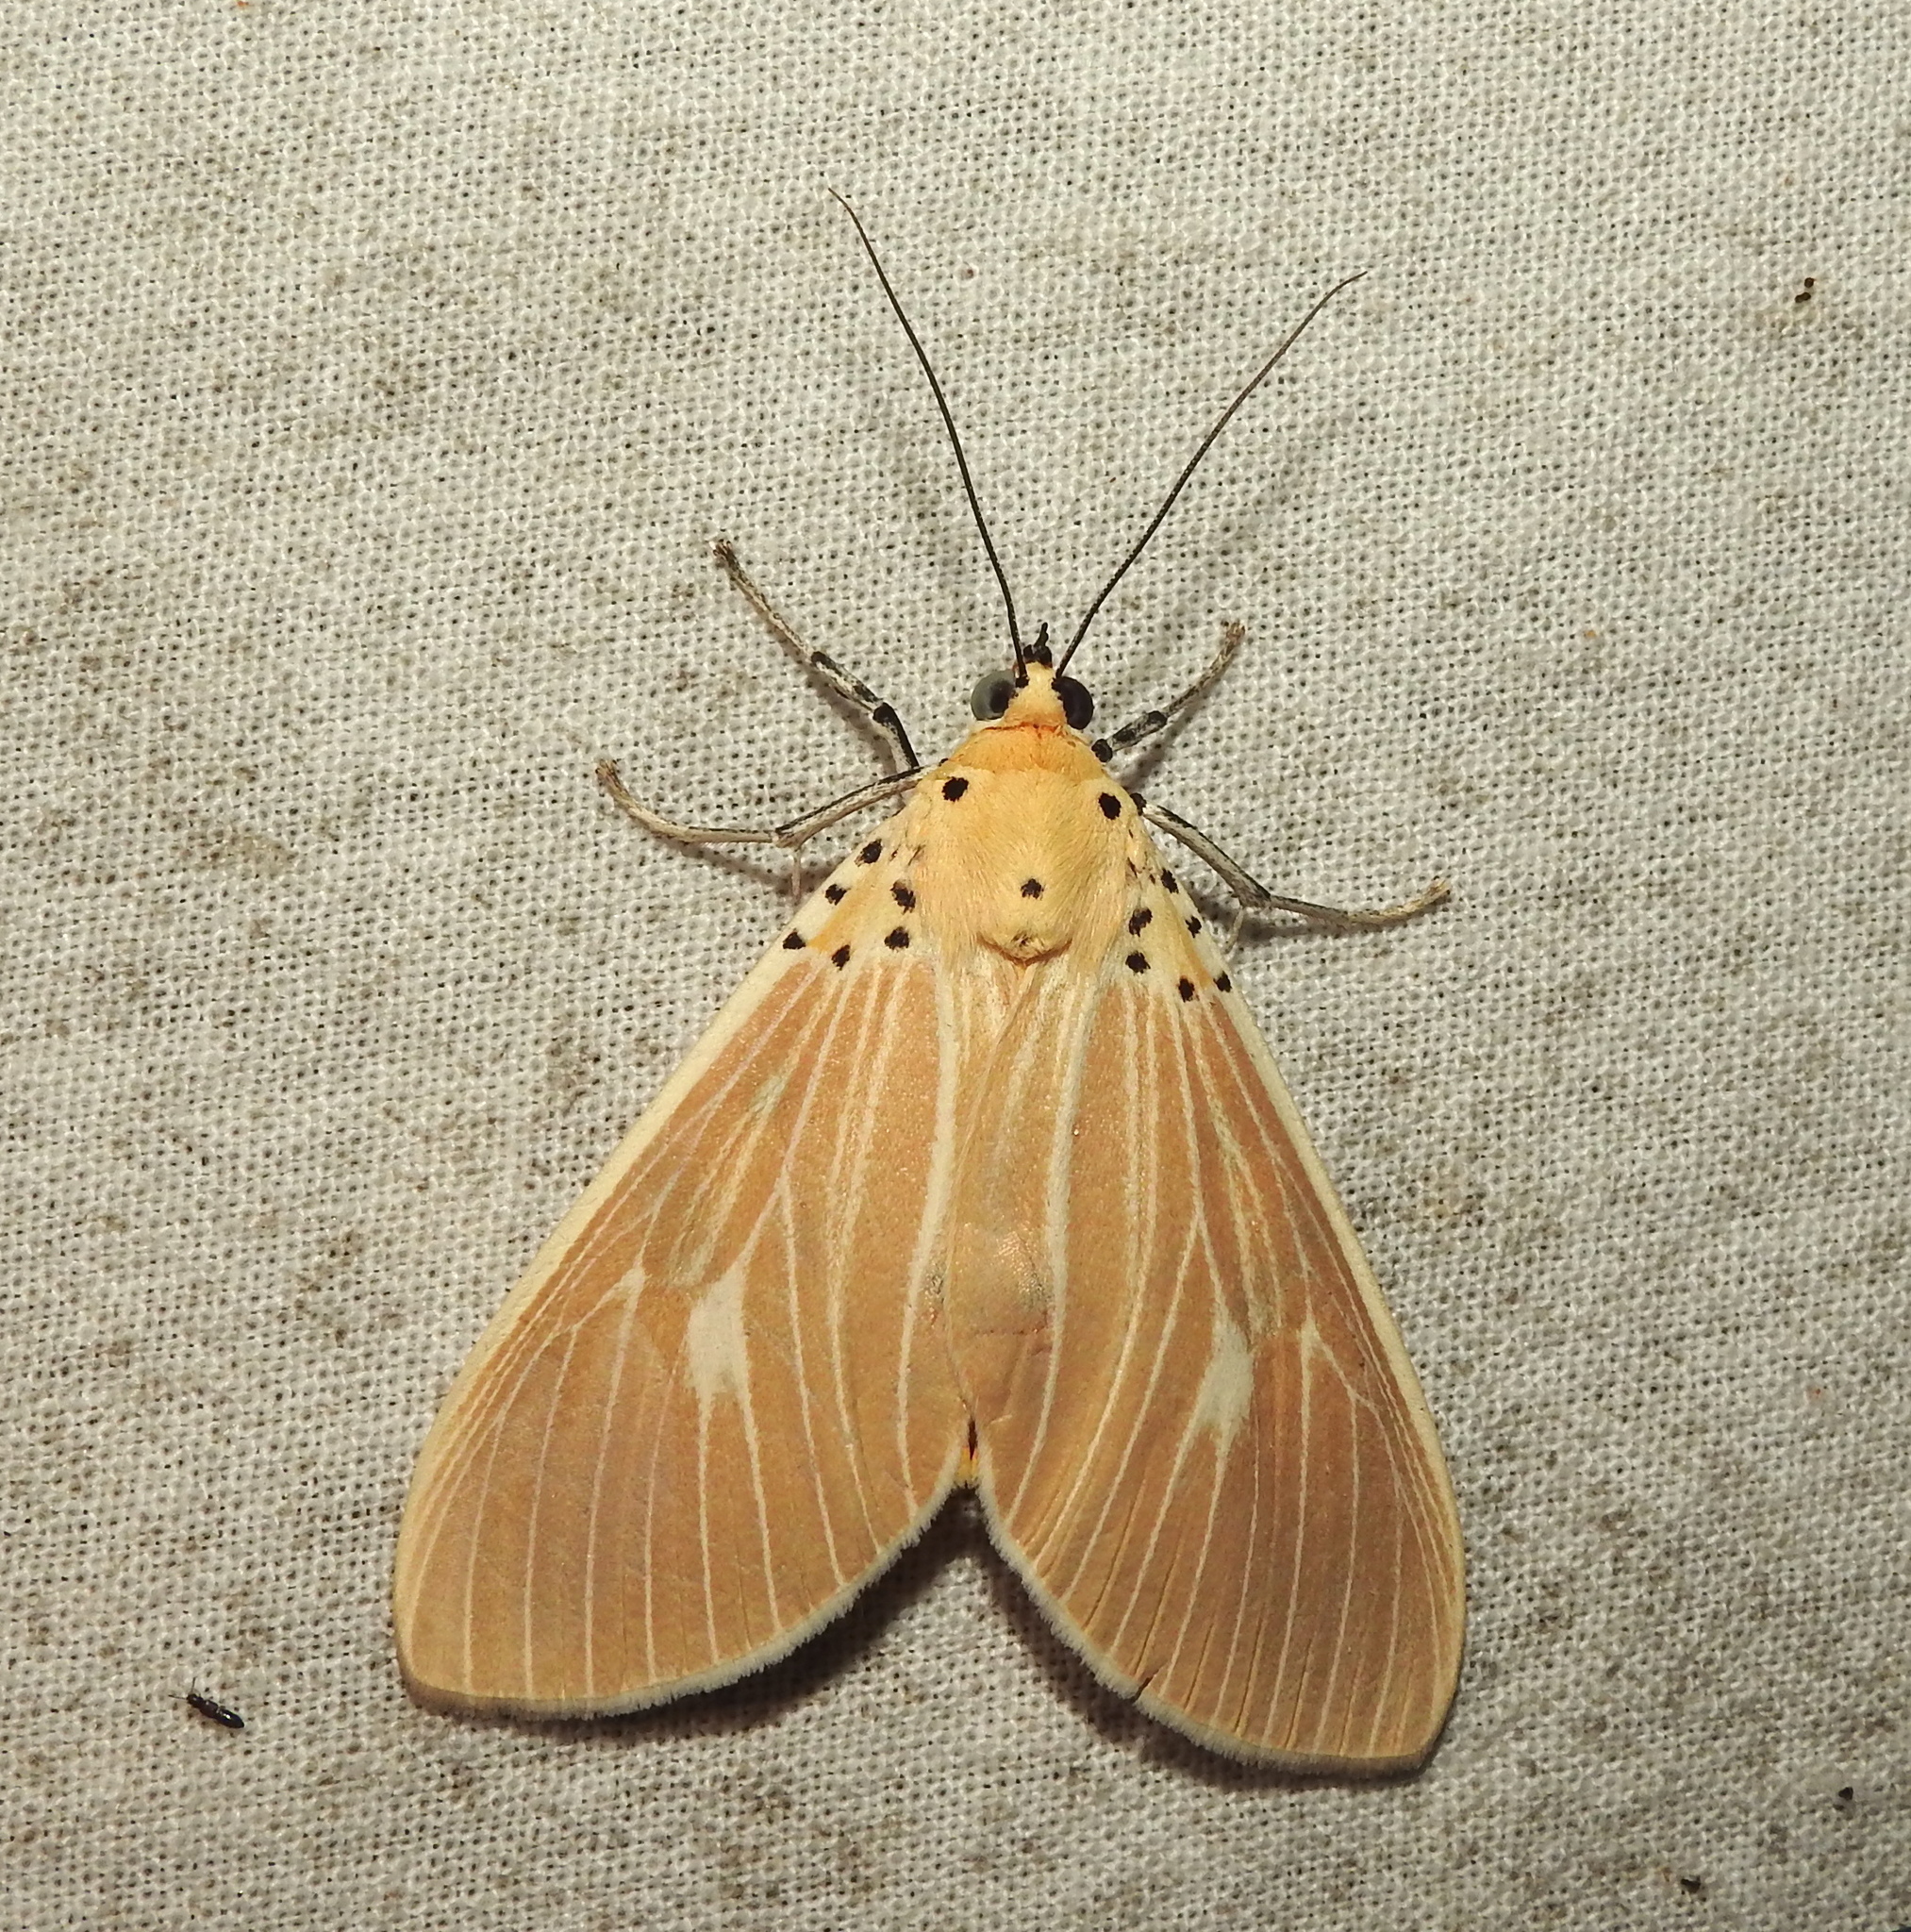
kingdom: Animalia
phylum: Arthropoda
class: Insecta
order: Lepidoptera
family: Erebidae
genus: Asota
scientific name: Asota producta
